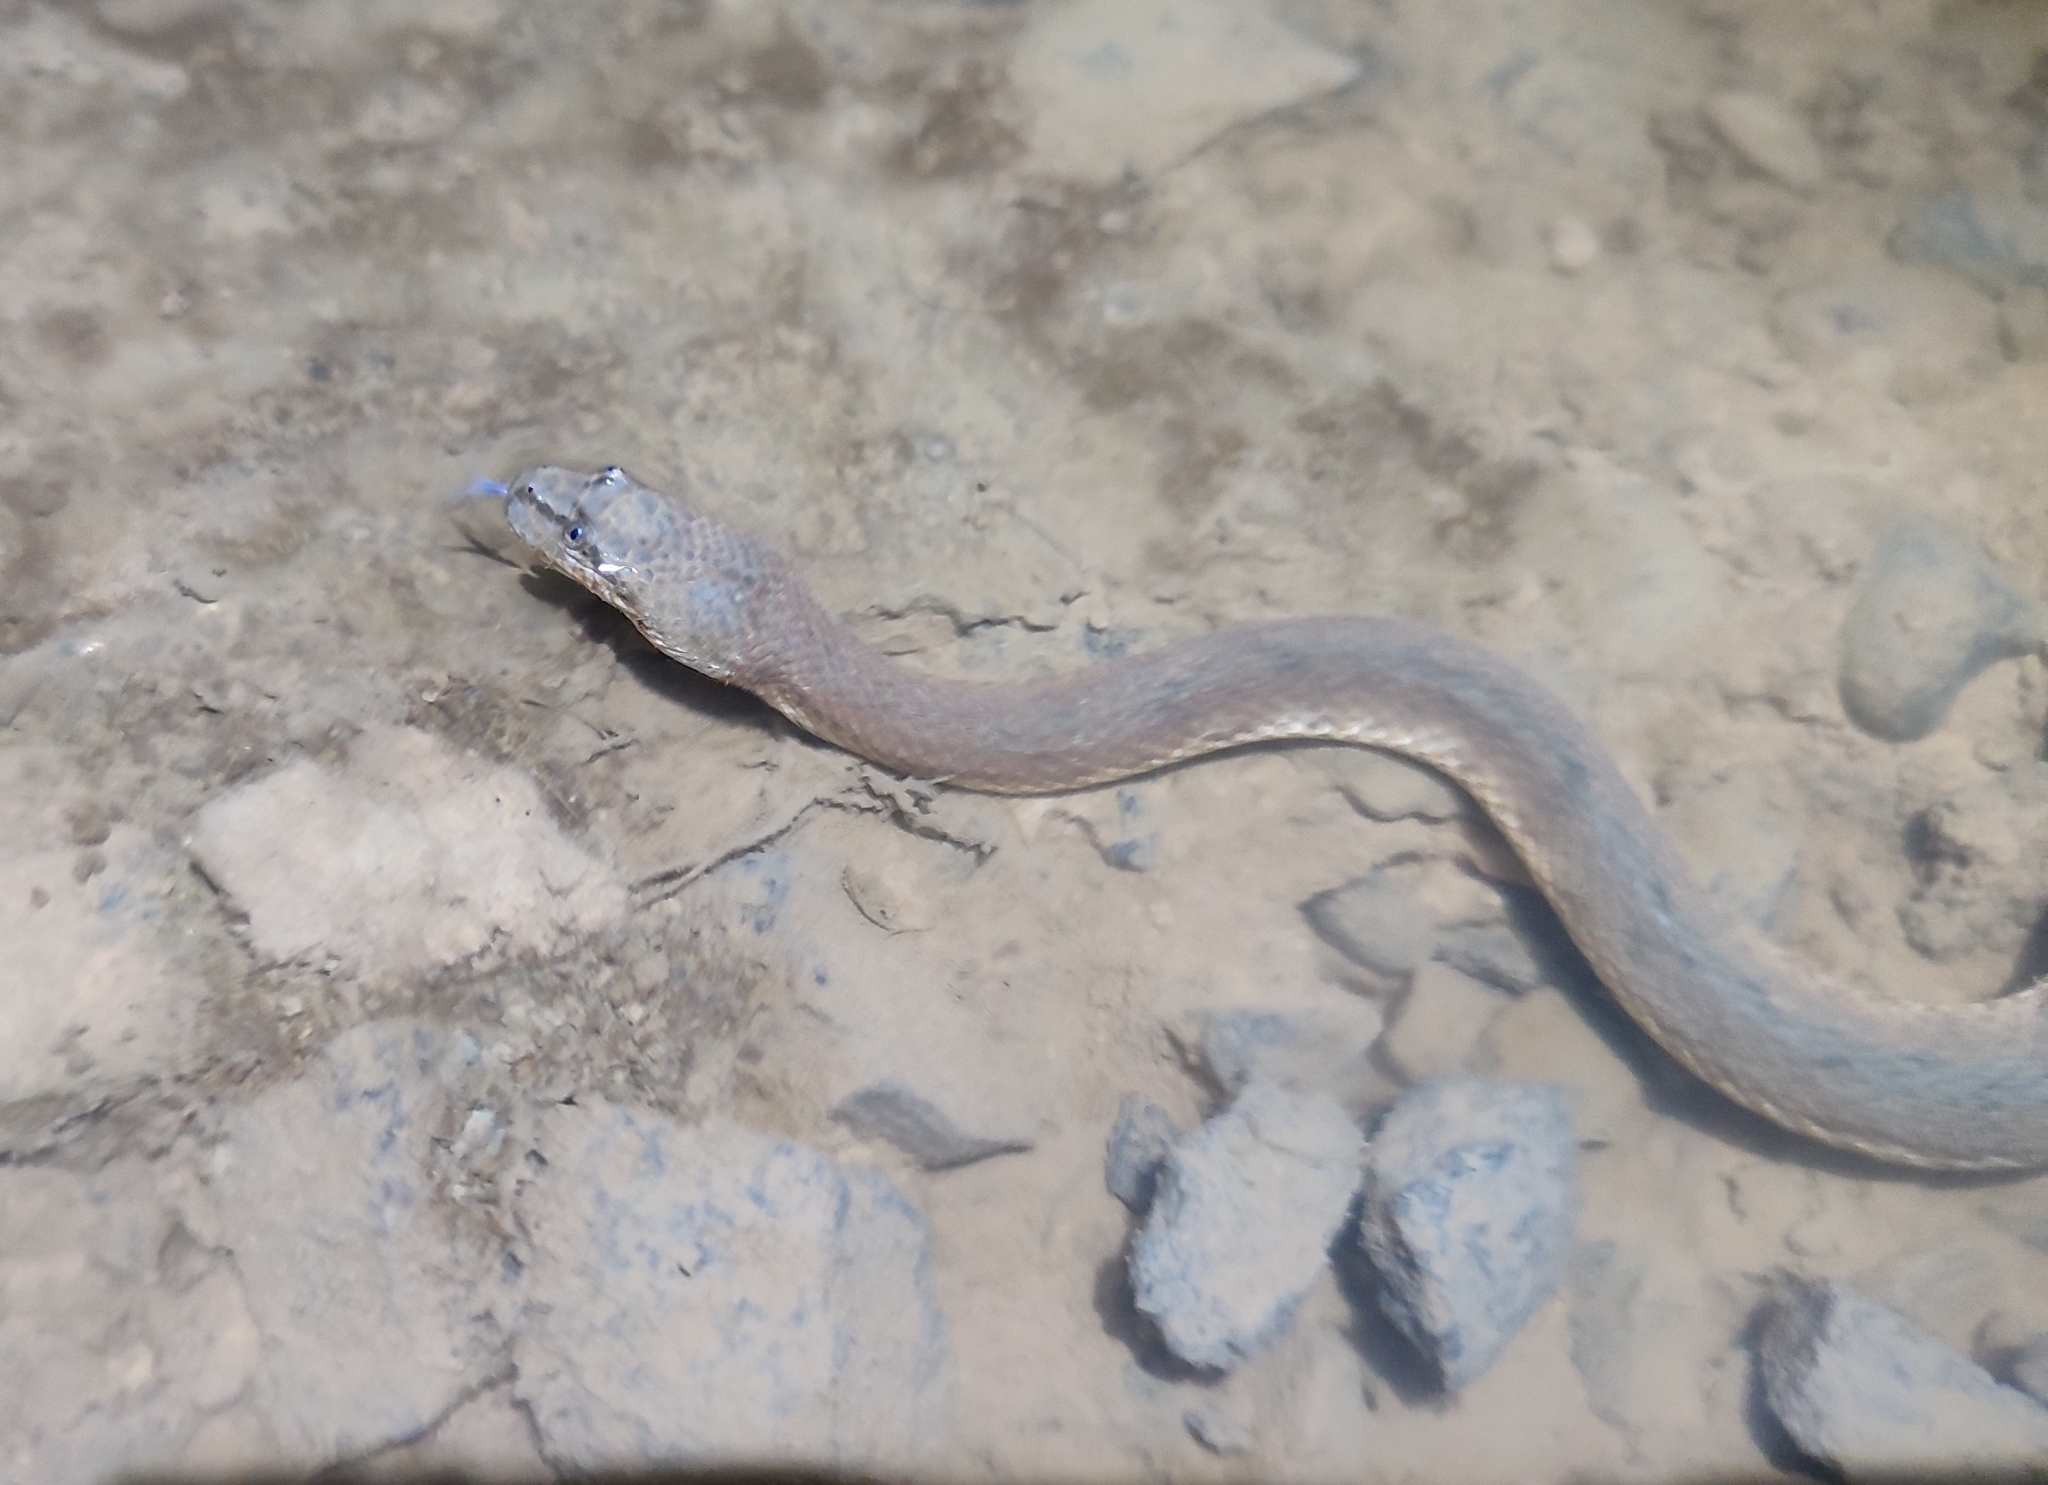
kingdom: Animalia
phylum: Chordata
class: Squamata
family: Homalopsidae
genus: Cerberus
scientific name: Cerberus schneiderii
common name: Southeast asian bockadam
